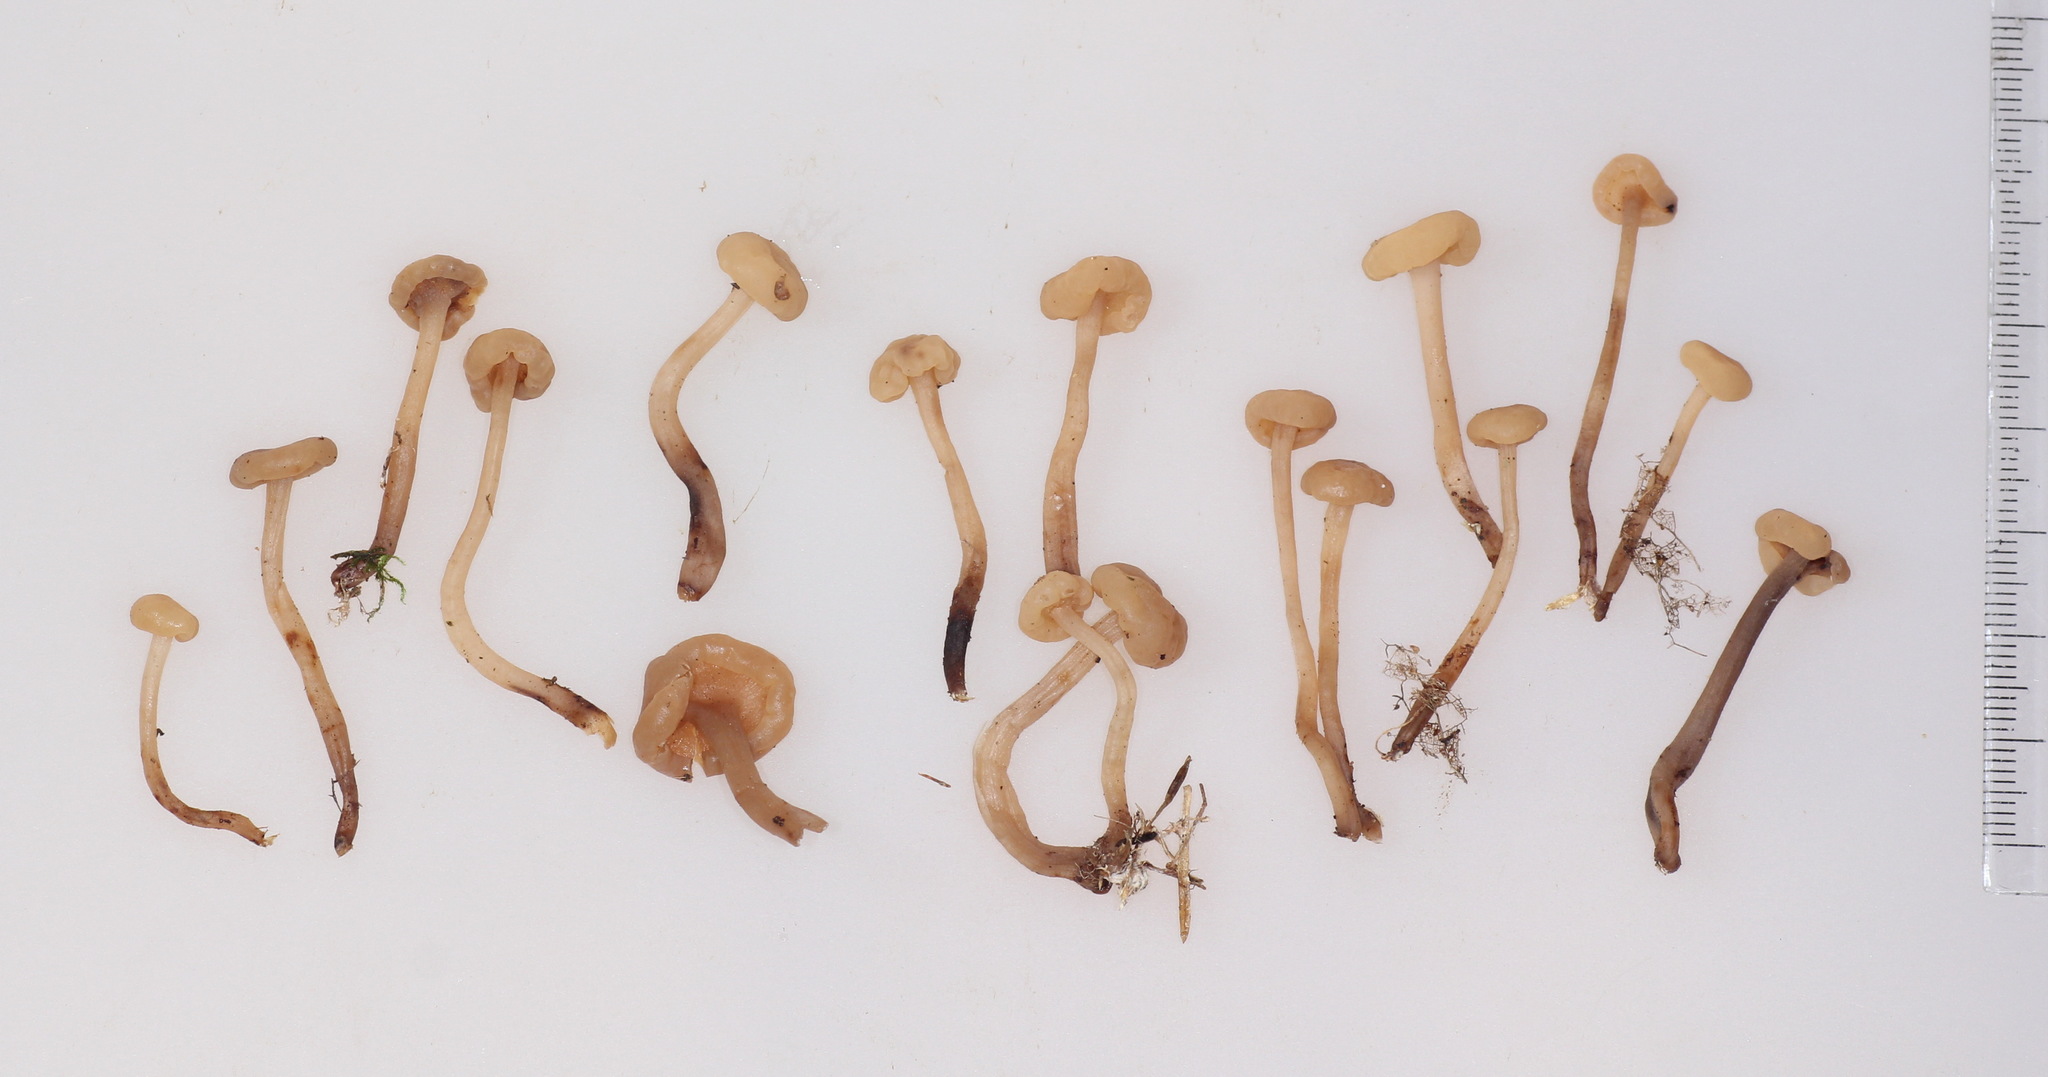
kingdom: Fungi
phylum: Ascomycota
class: Leotiomycetes
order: Rhytismatales
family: Cudoniaceae
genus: Cudonia
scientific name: Cudonia circinans
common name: Redleg jellybaby
